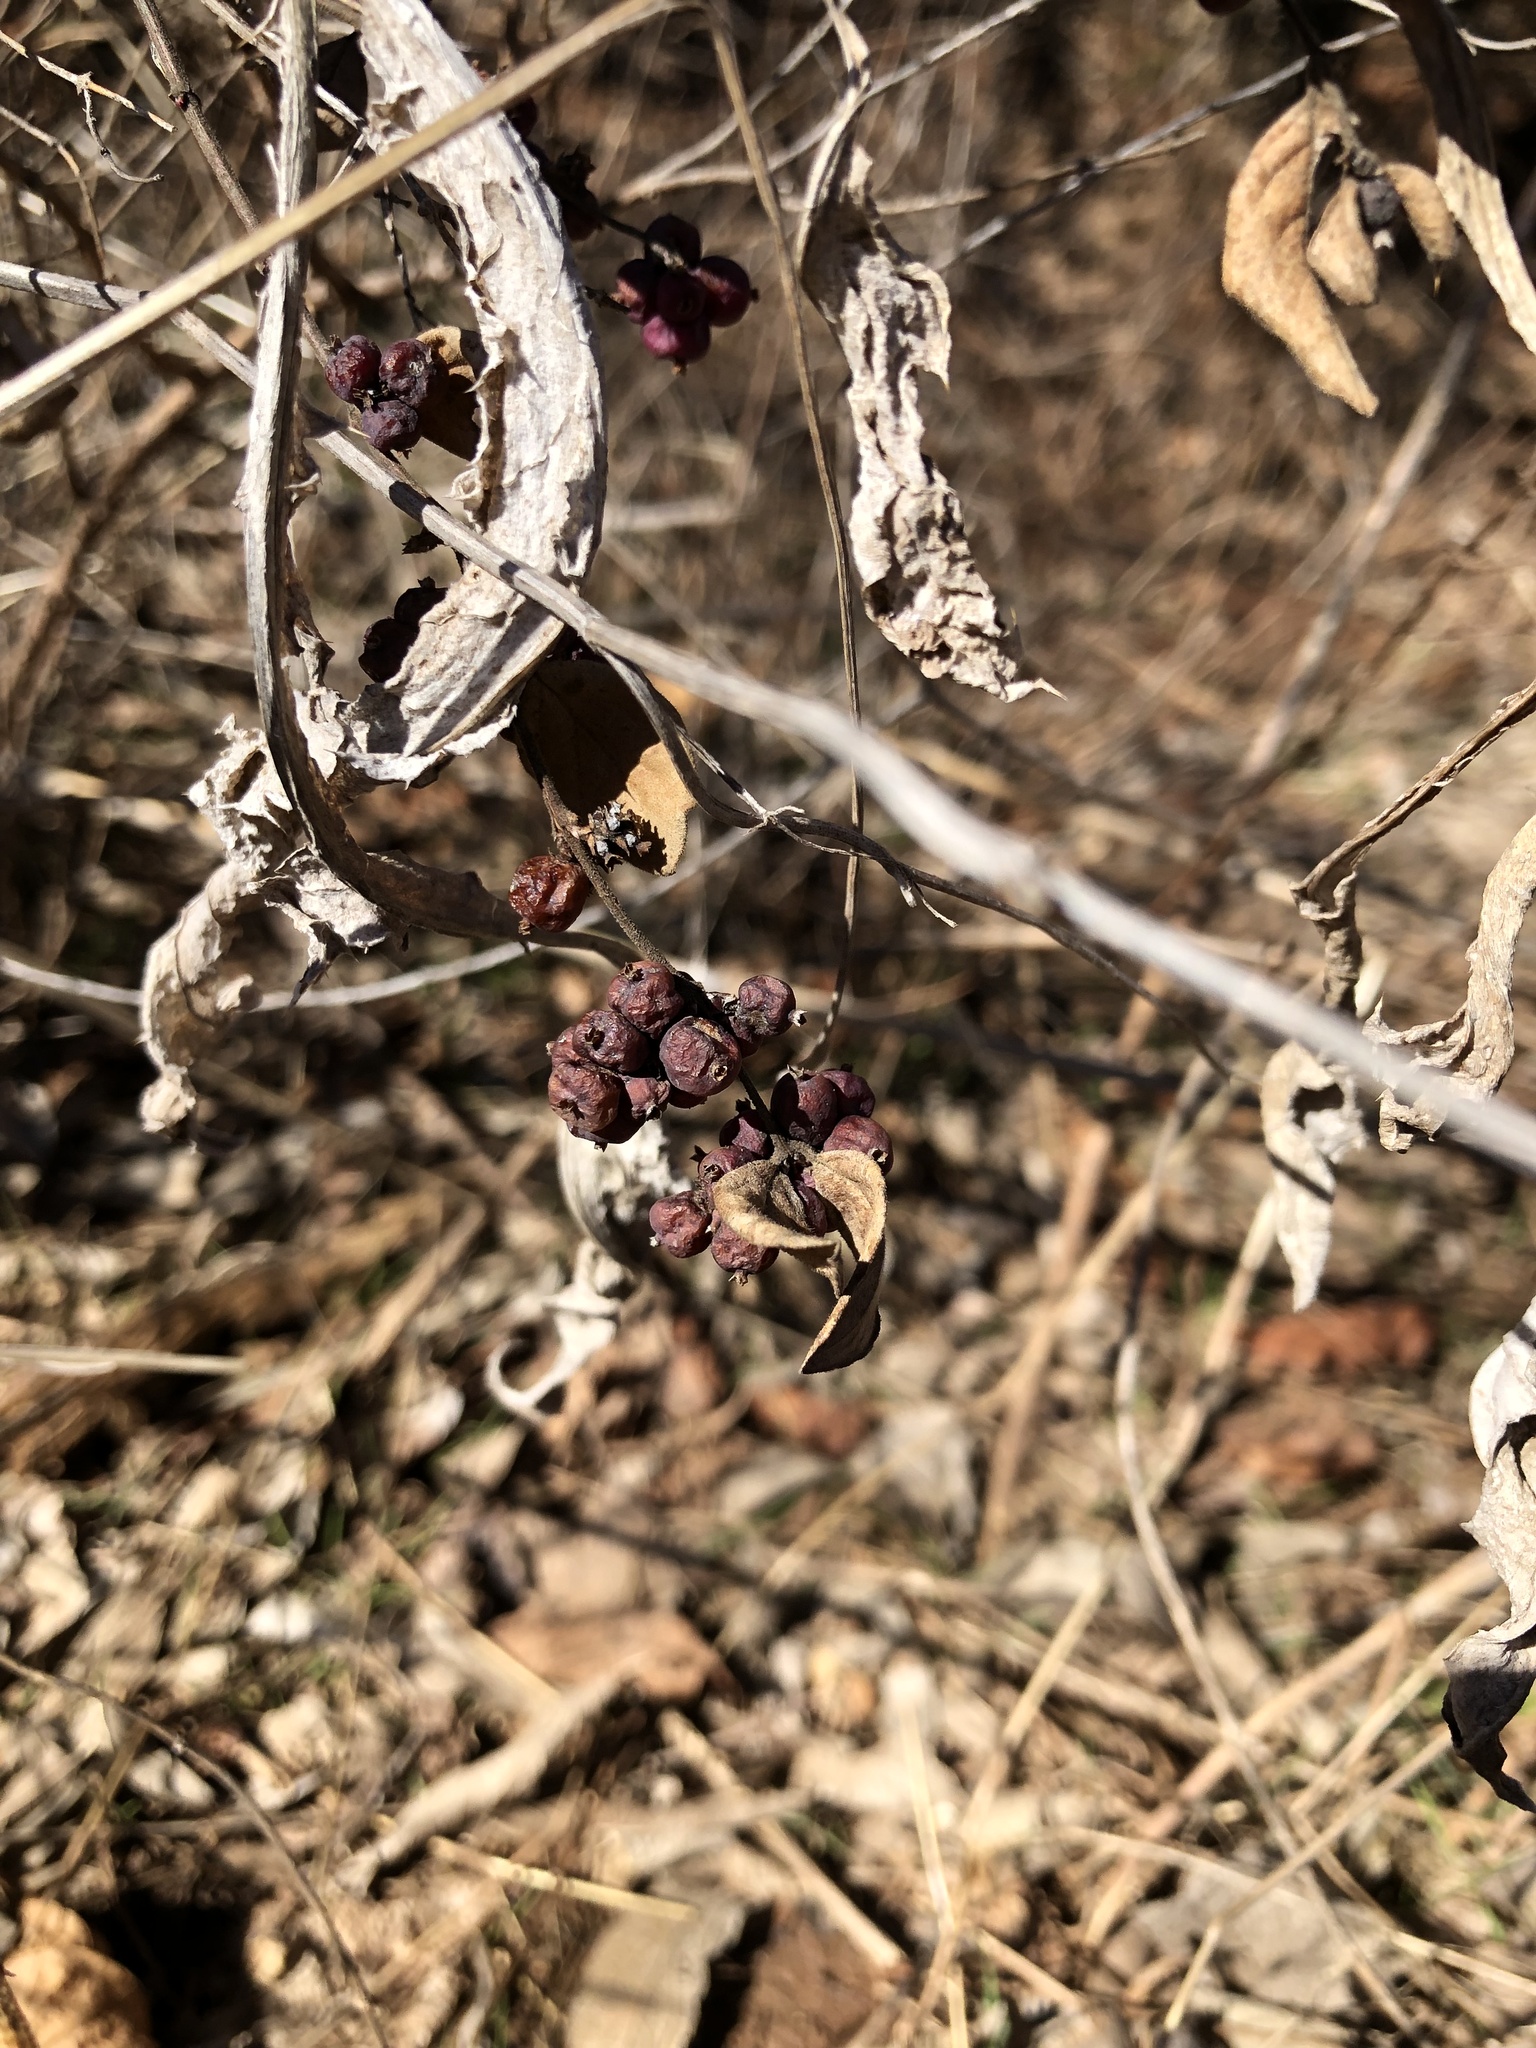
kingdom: Plantae
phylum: Tracheophyta
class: Magnoliopsida
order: Dipsacales
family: Caprifoliaceae
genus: Symphoricarpos
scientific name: Symphoricarpos orbiculatus
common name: Coralberry
